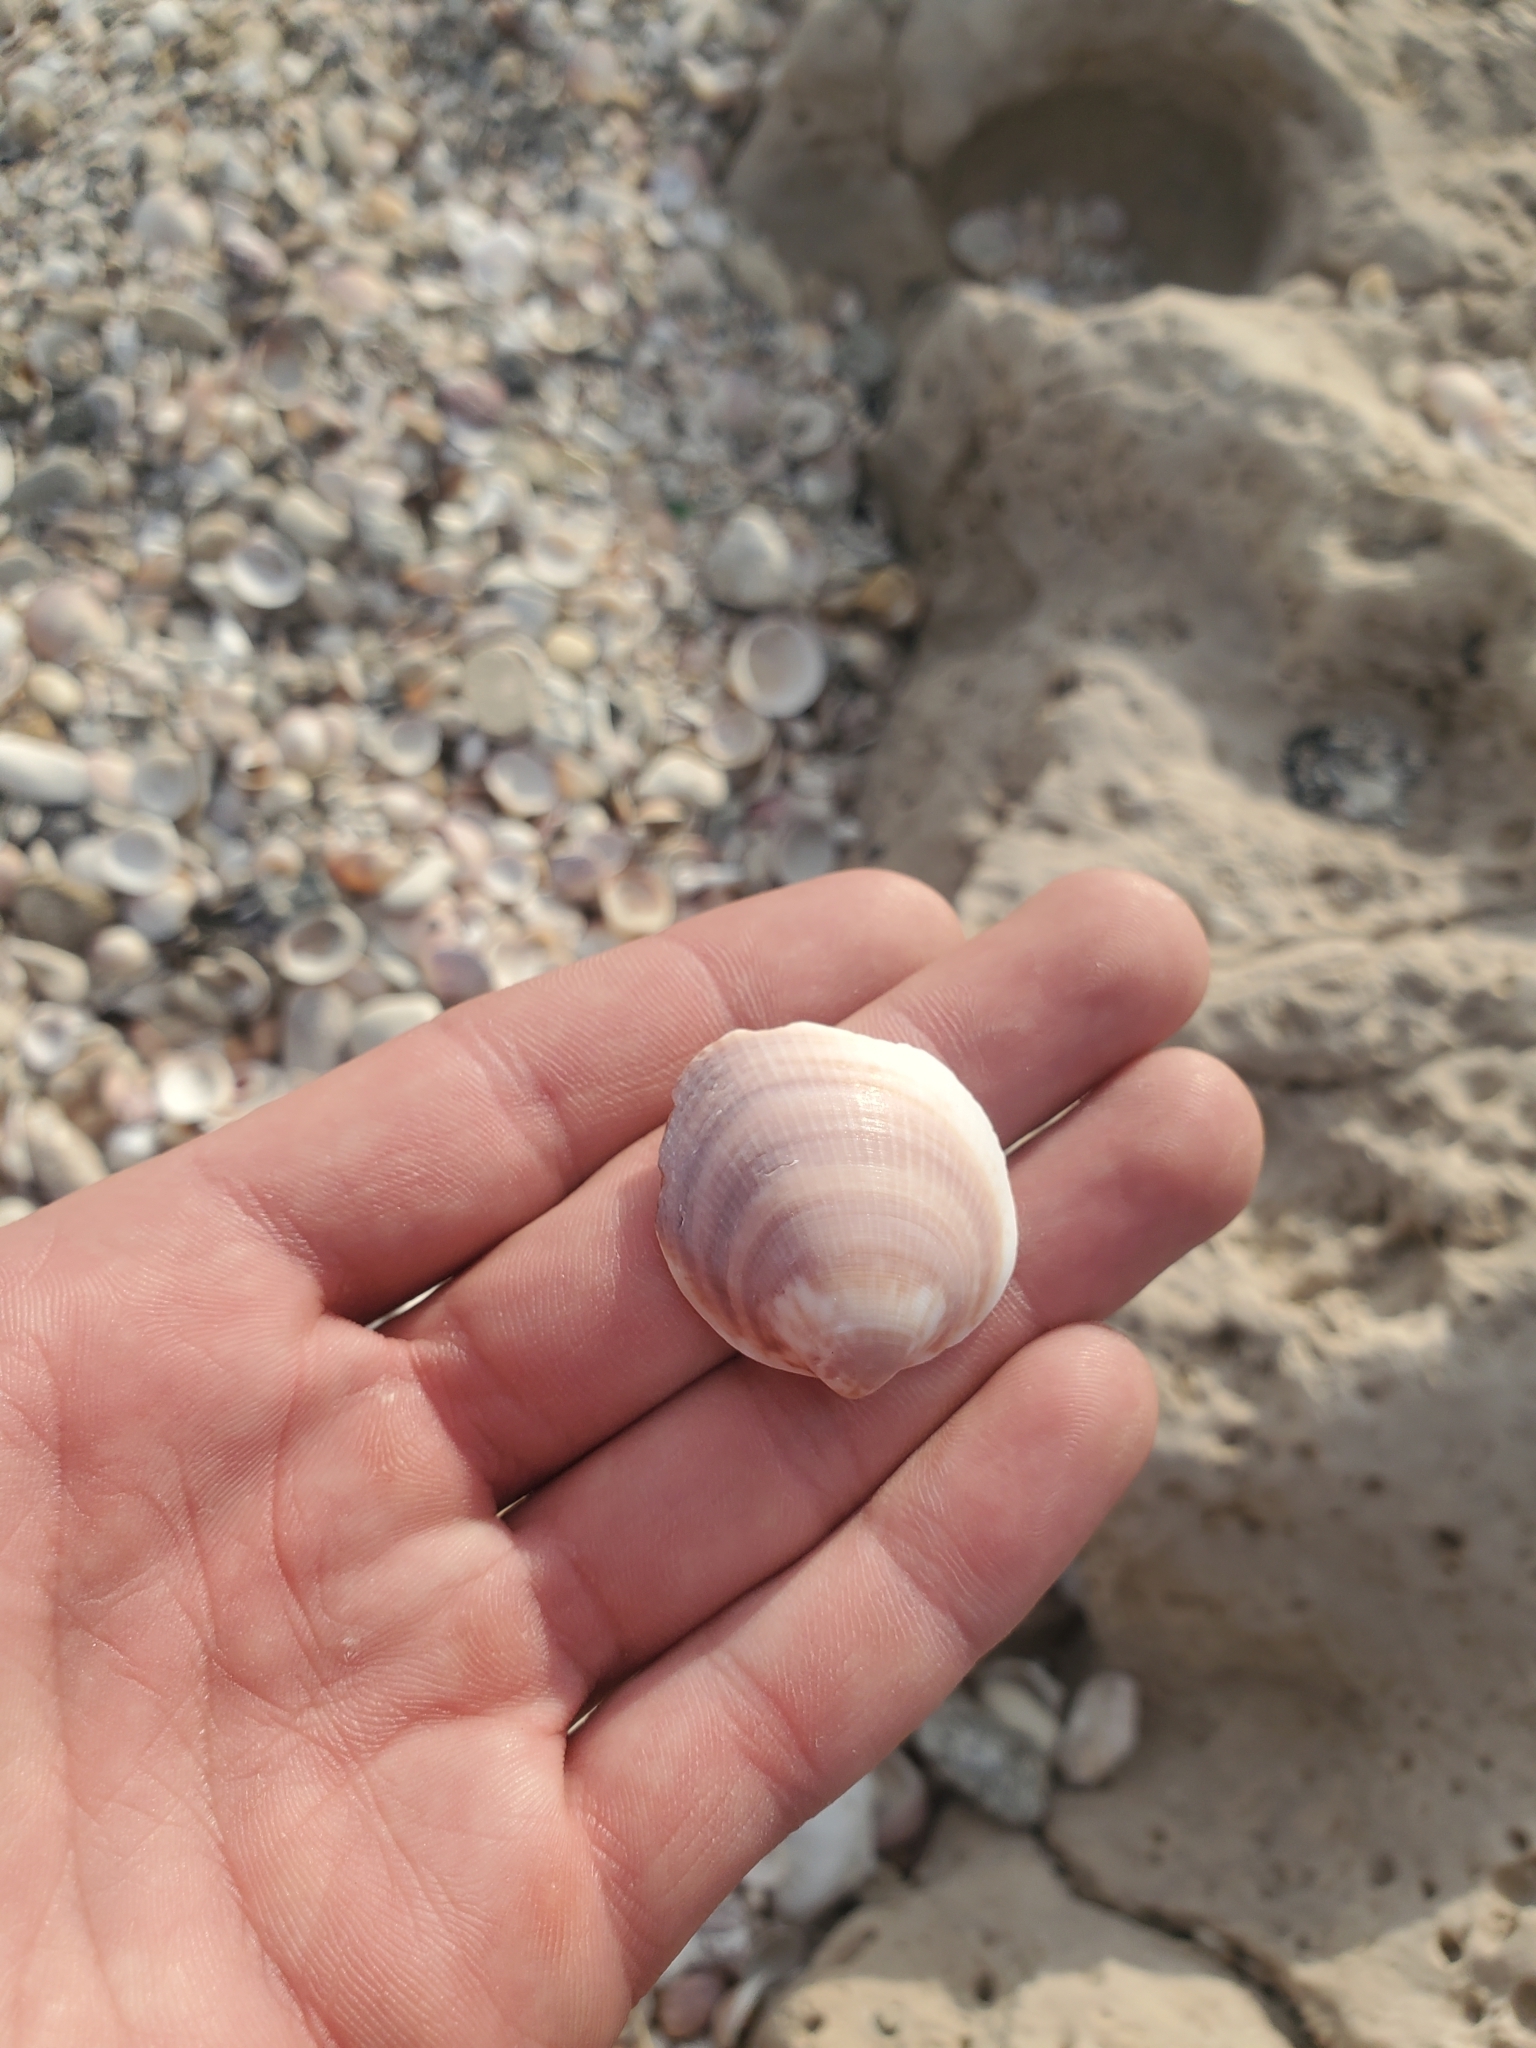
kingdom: Animalia
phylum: Mollusca
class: Bivalvia
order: Arcida
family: Glycymerididae
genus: Glycymeris
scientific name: Glycymeris nummaria
